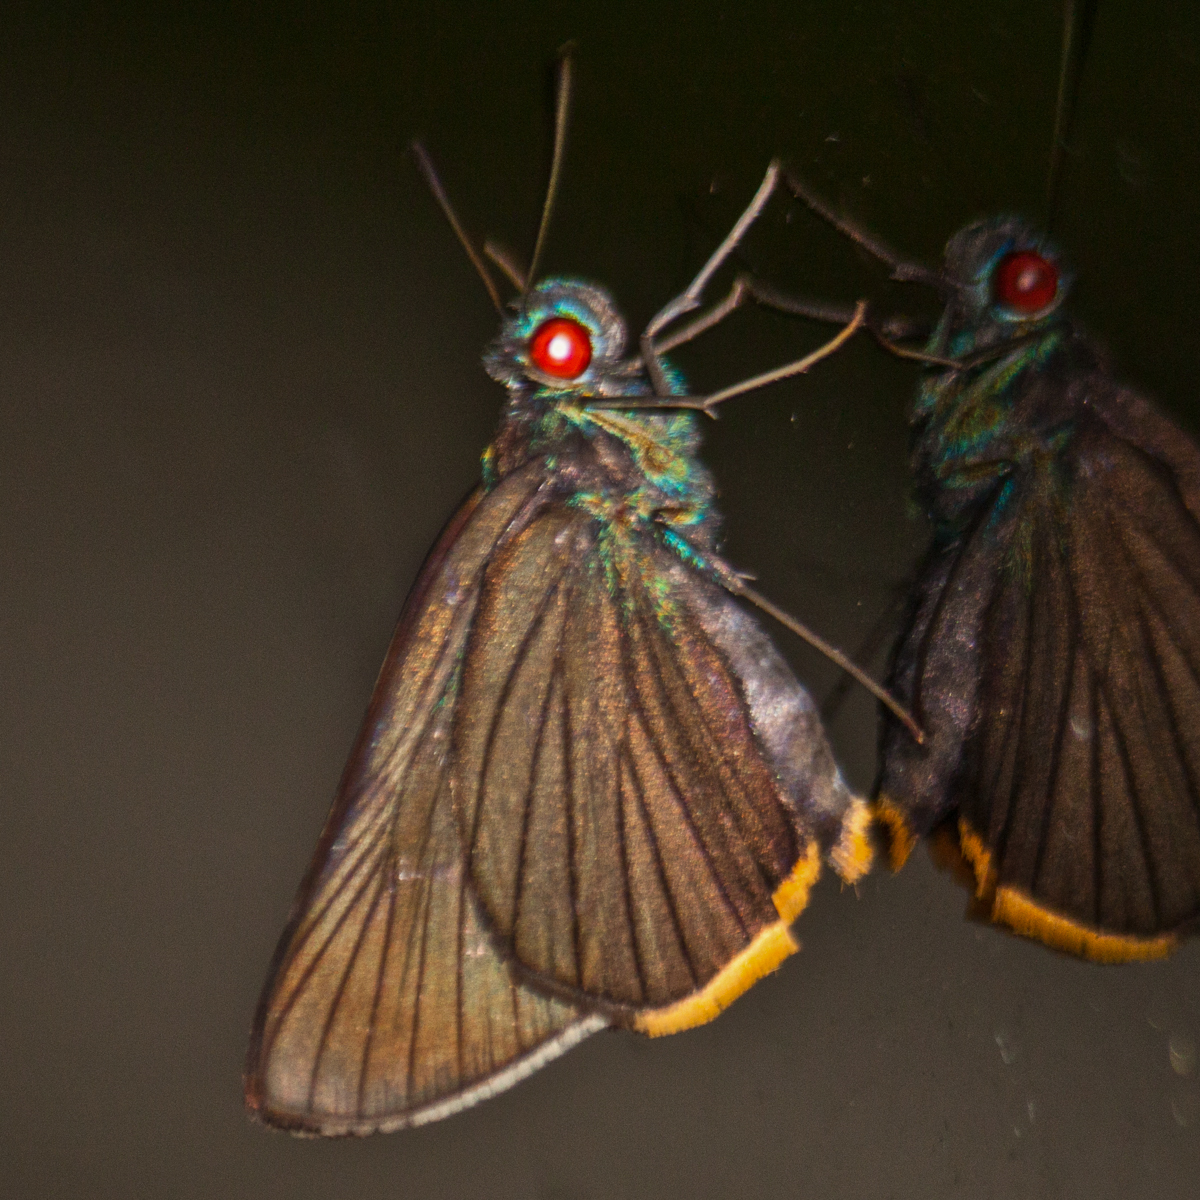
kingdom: Animalia
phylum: Arthropoda
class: Insecta
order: Lepidoptera
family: Hesperiidae
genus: Matapa
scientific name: Matapa sasivarna
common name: Black-veined redeye
